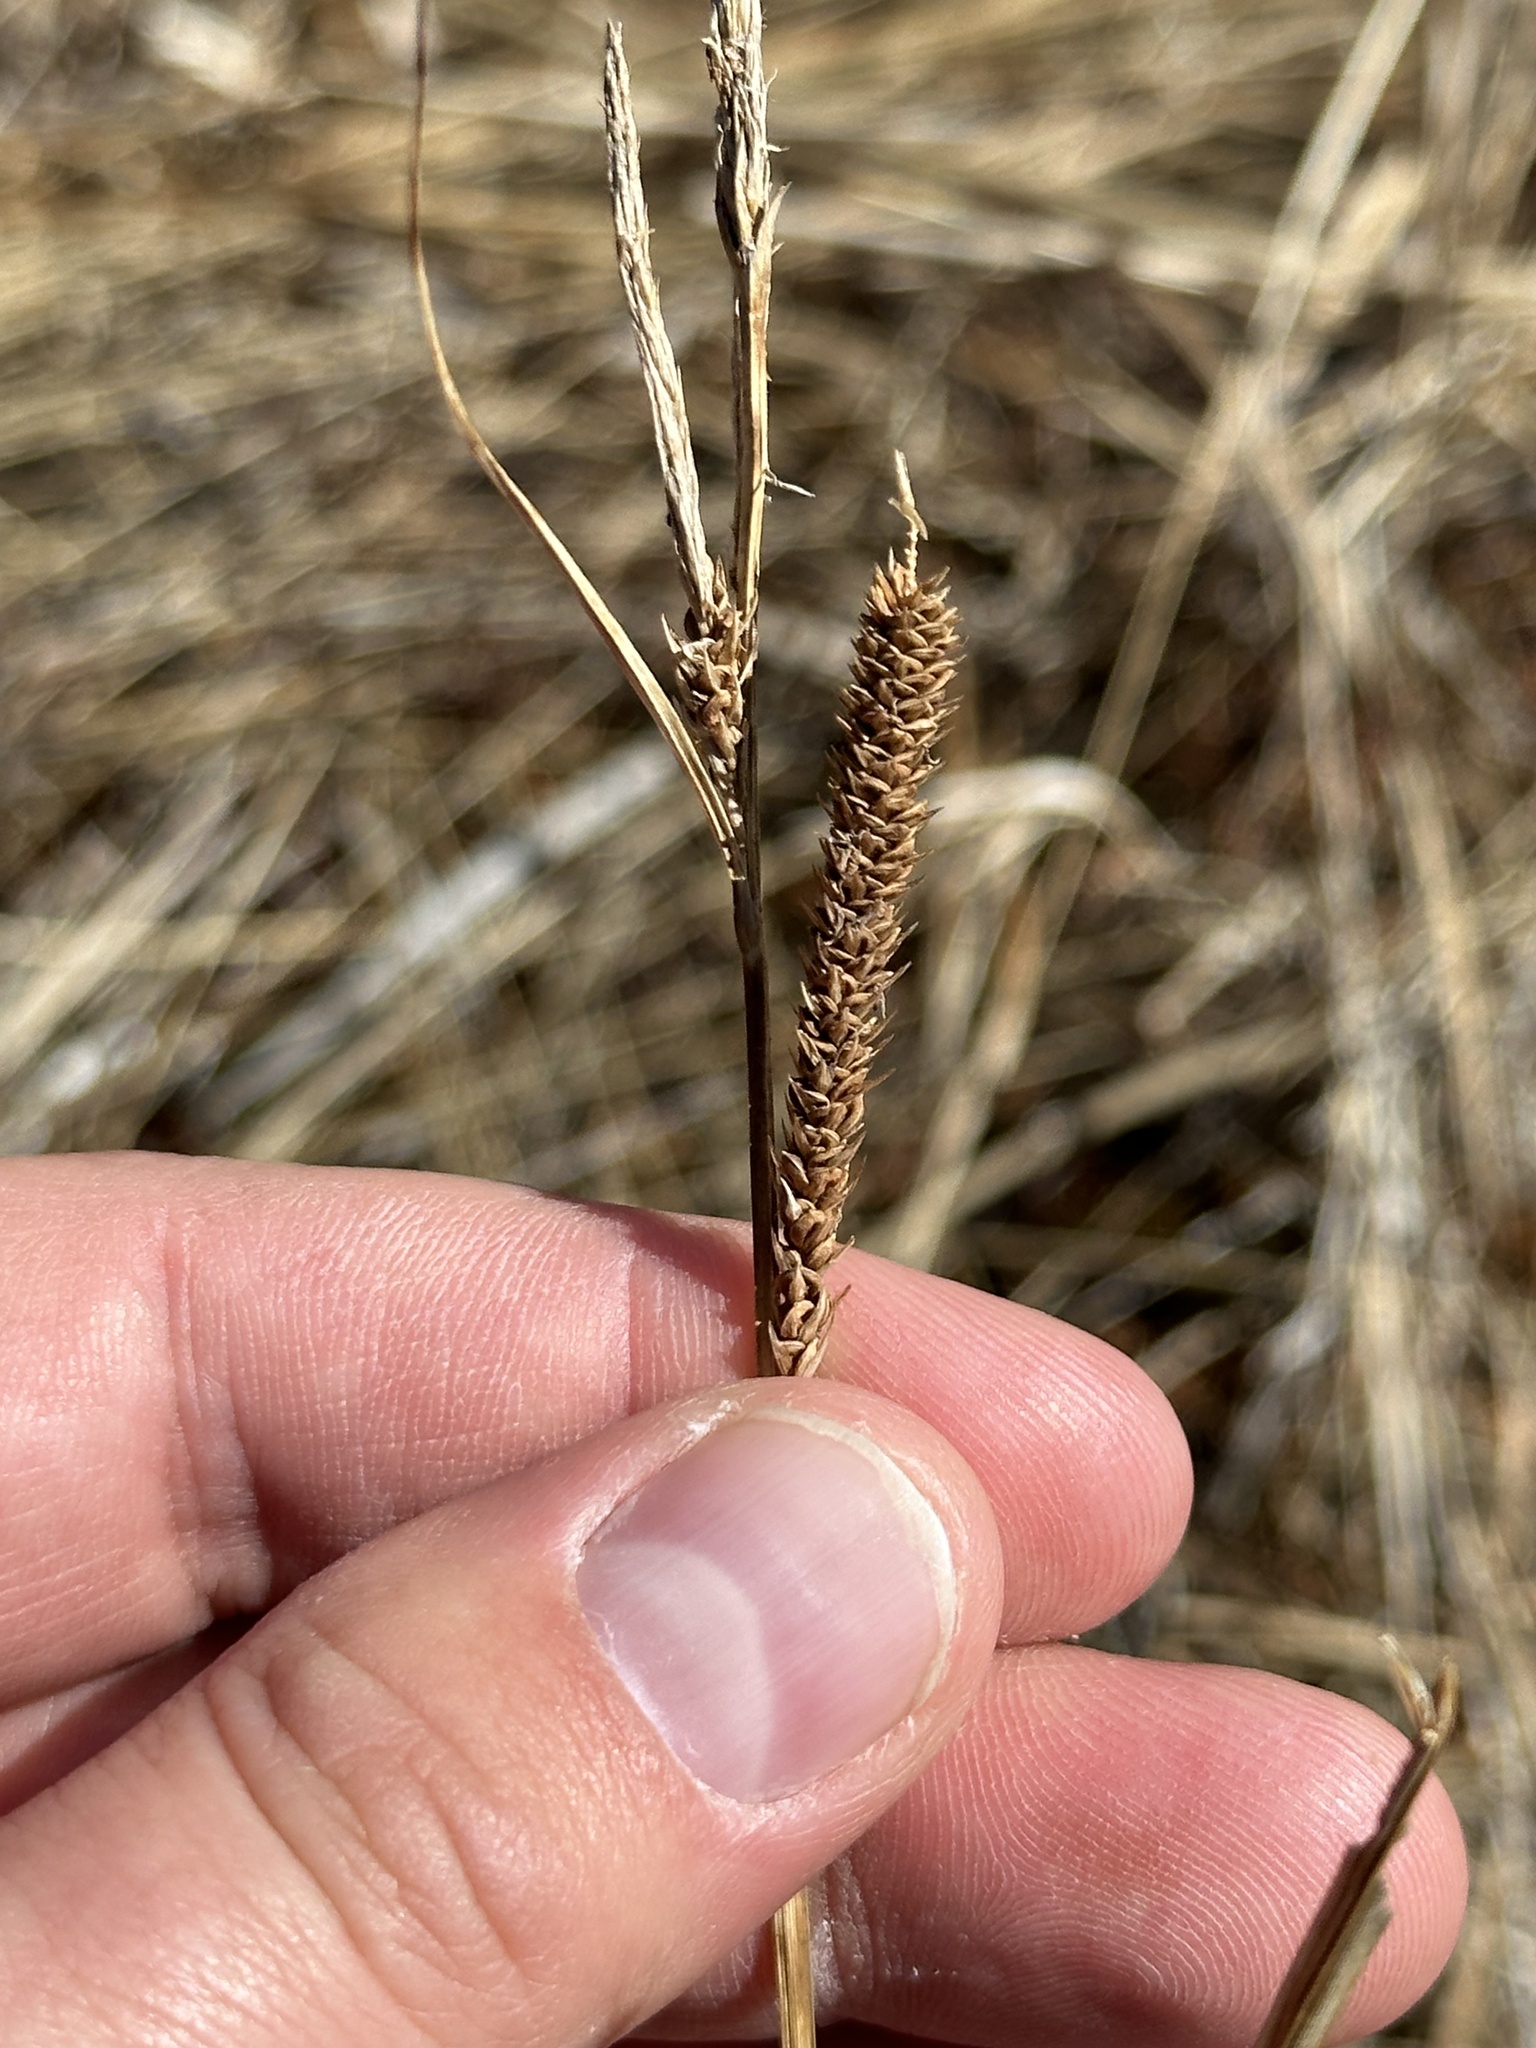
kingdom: Plantae
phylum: Tracheophyta
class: Liliopsida
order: Poales
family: Cyperaceae
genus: Carex
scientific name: Carex aquatilis
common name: Water sedge
